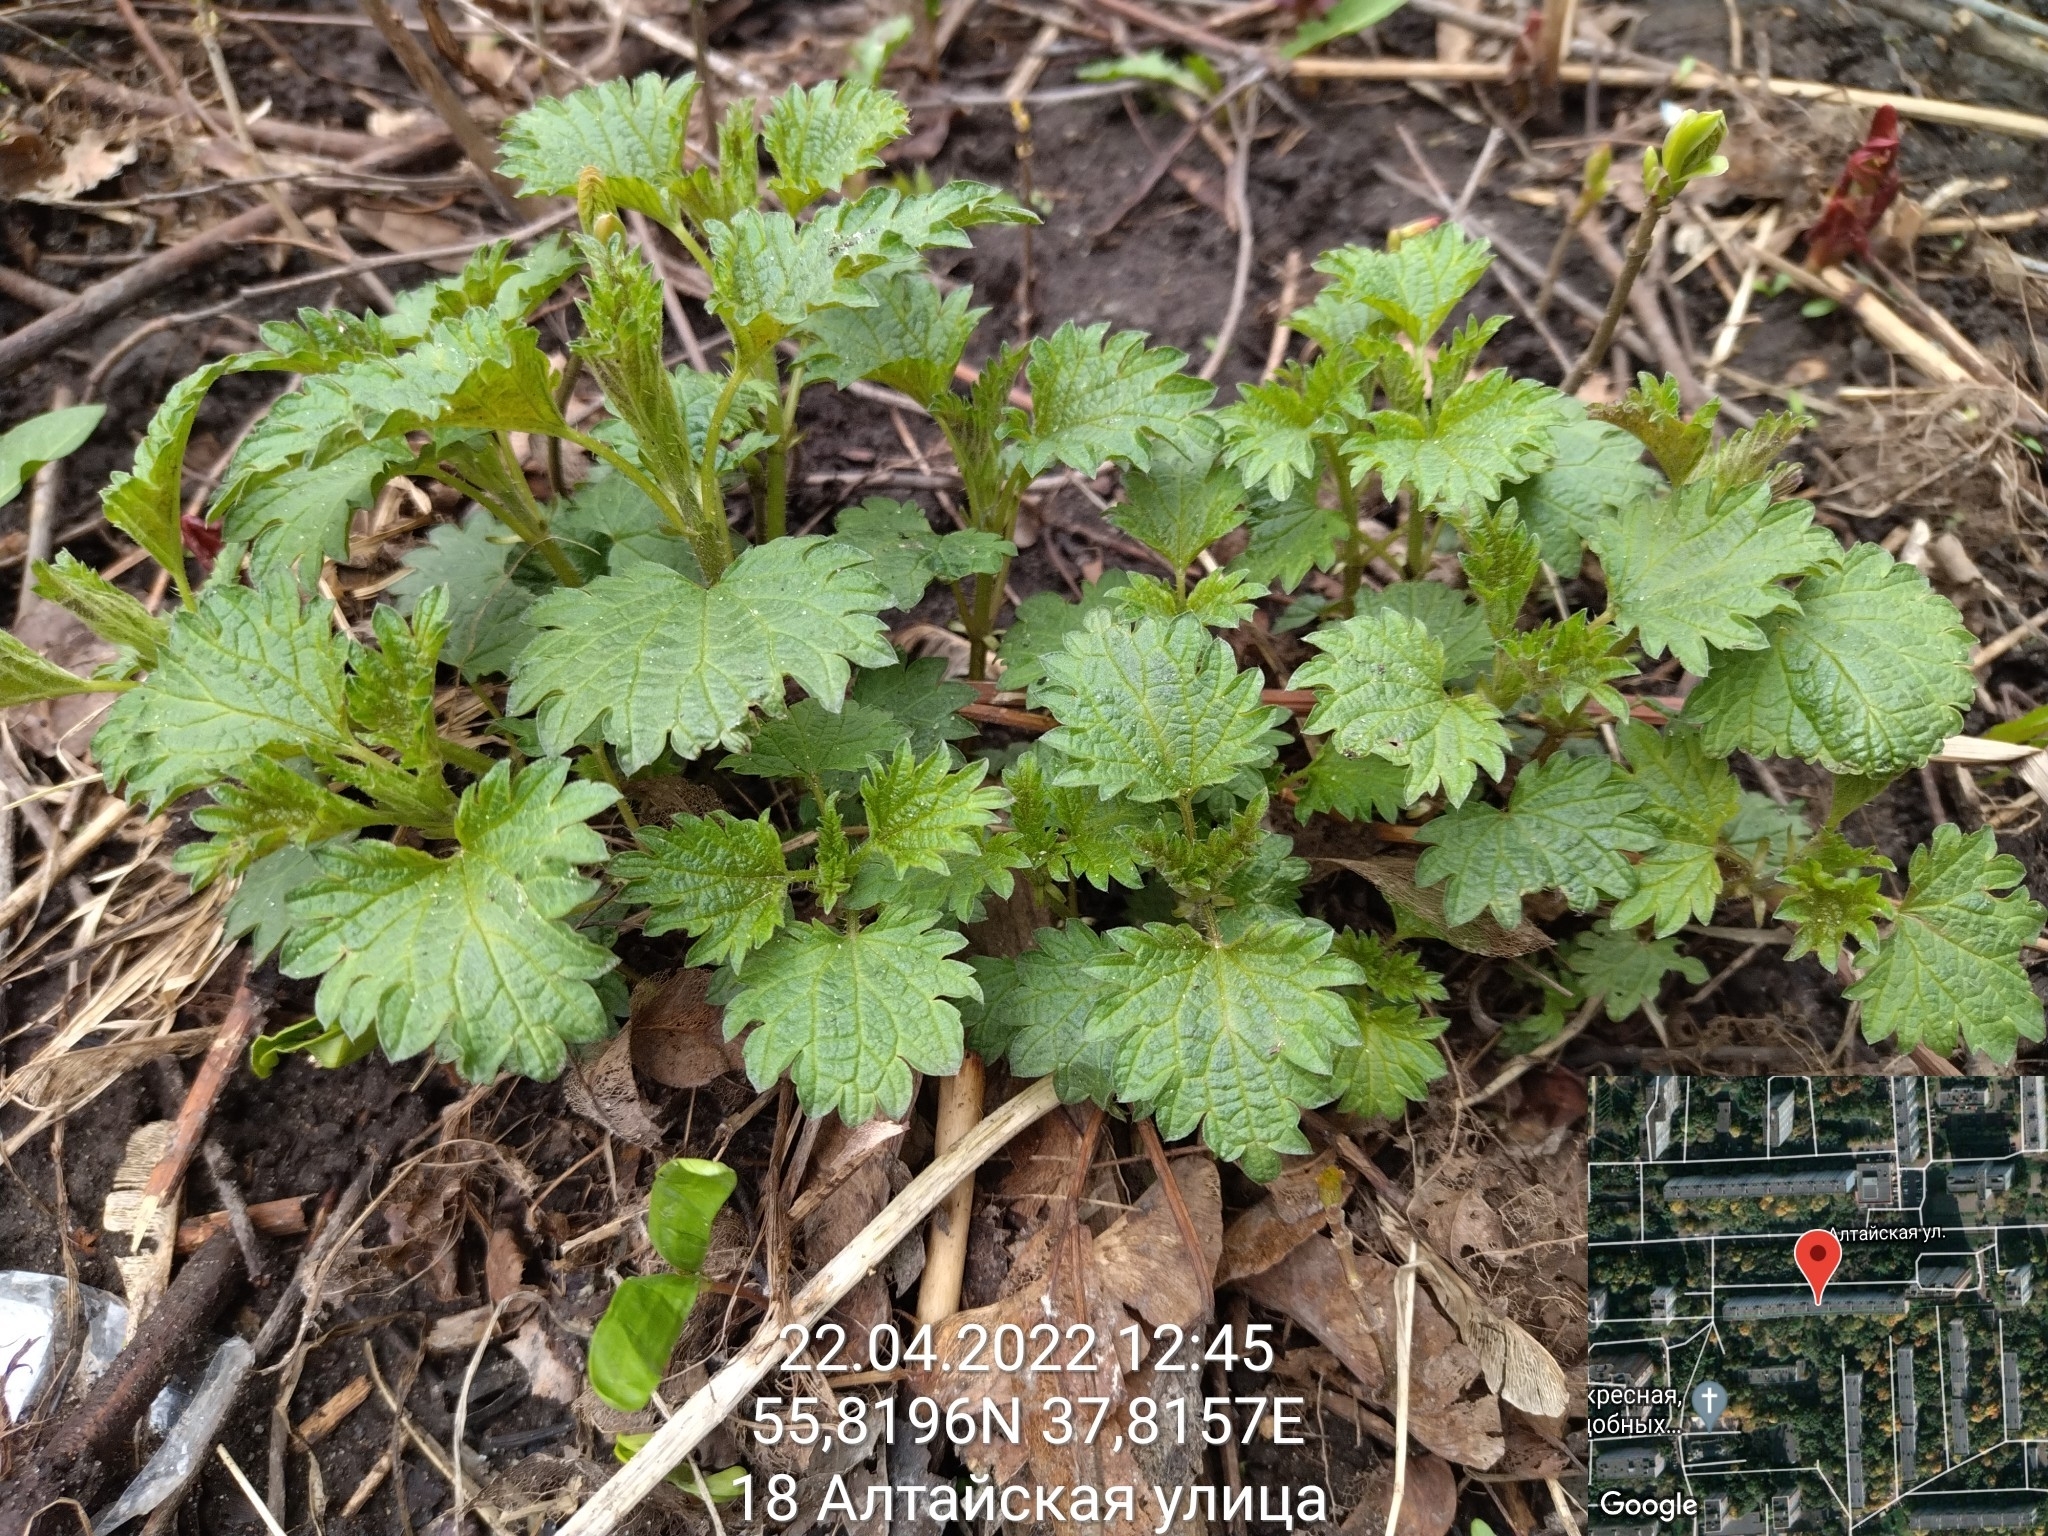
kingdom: Plantae
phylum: Tracheophyta
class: Magnoliopsida
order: Rosales
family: Urticaceae
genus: Urtica
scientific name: Urtica dioica
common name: Common nettle
